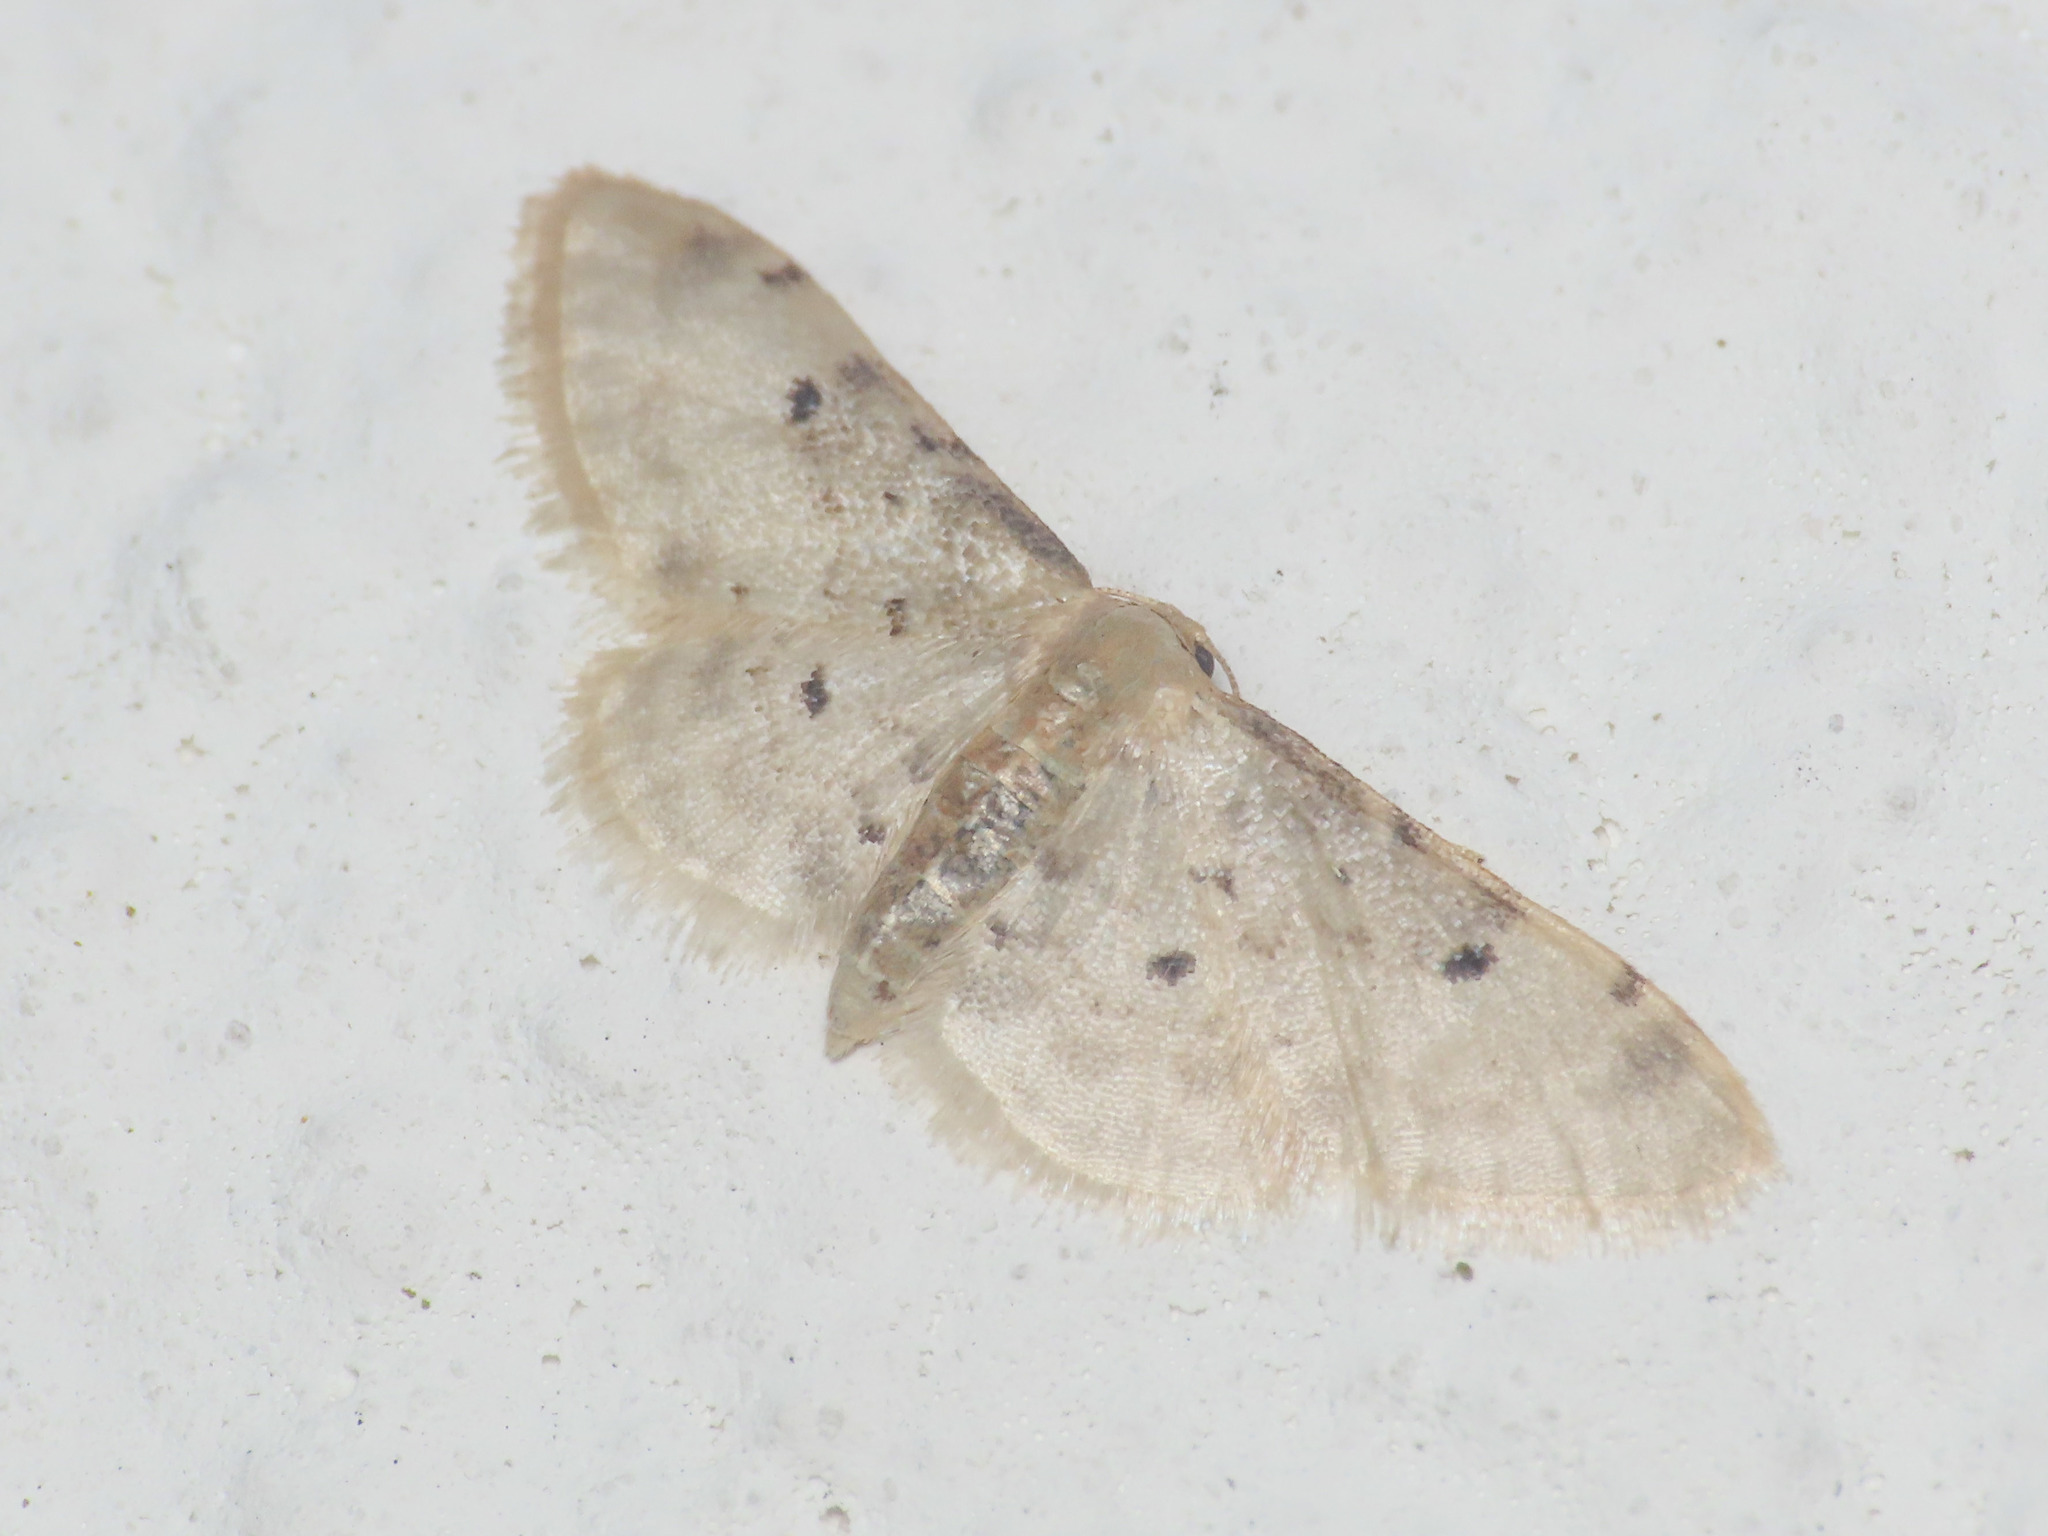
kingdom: Animalia
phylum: Arthropoda
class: Insecta
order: Lepidoptera
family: Geometridae
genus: Idaea
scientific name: Idaea filicata
